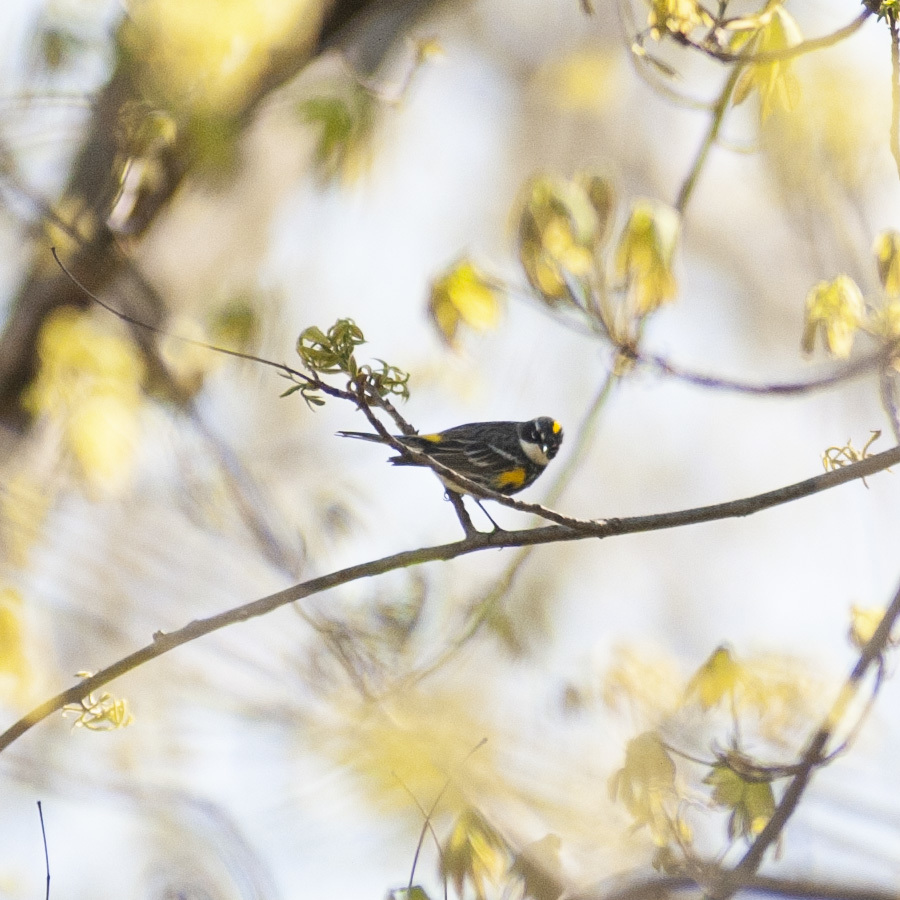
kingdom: Animalia
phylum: Chordata
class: Aves
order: Passeriformes
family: Parulidae
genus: Setophaga
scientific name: Setophaga coronata
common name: Myrtle warbler
